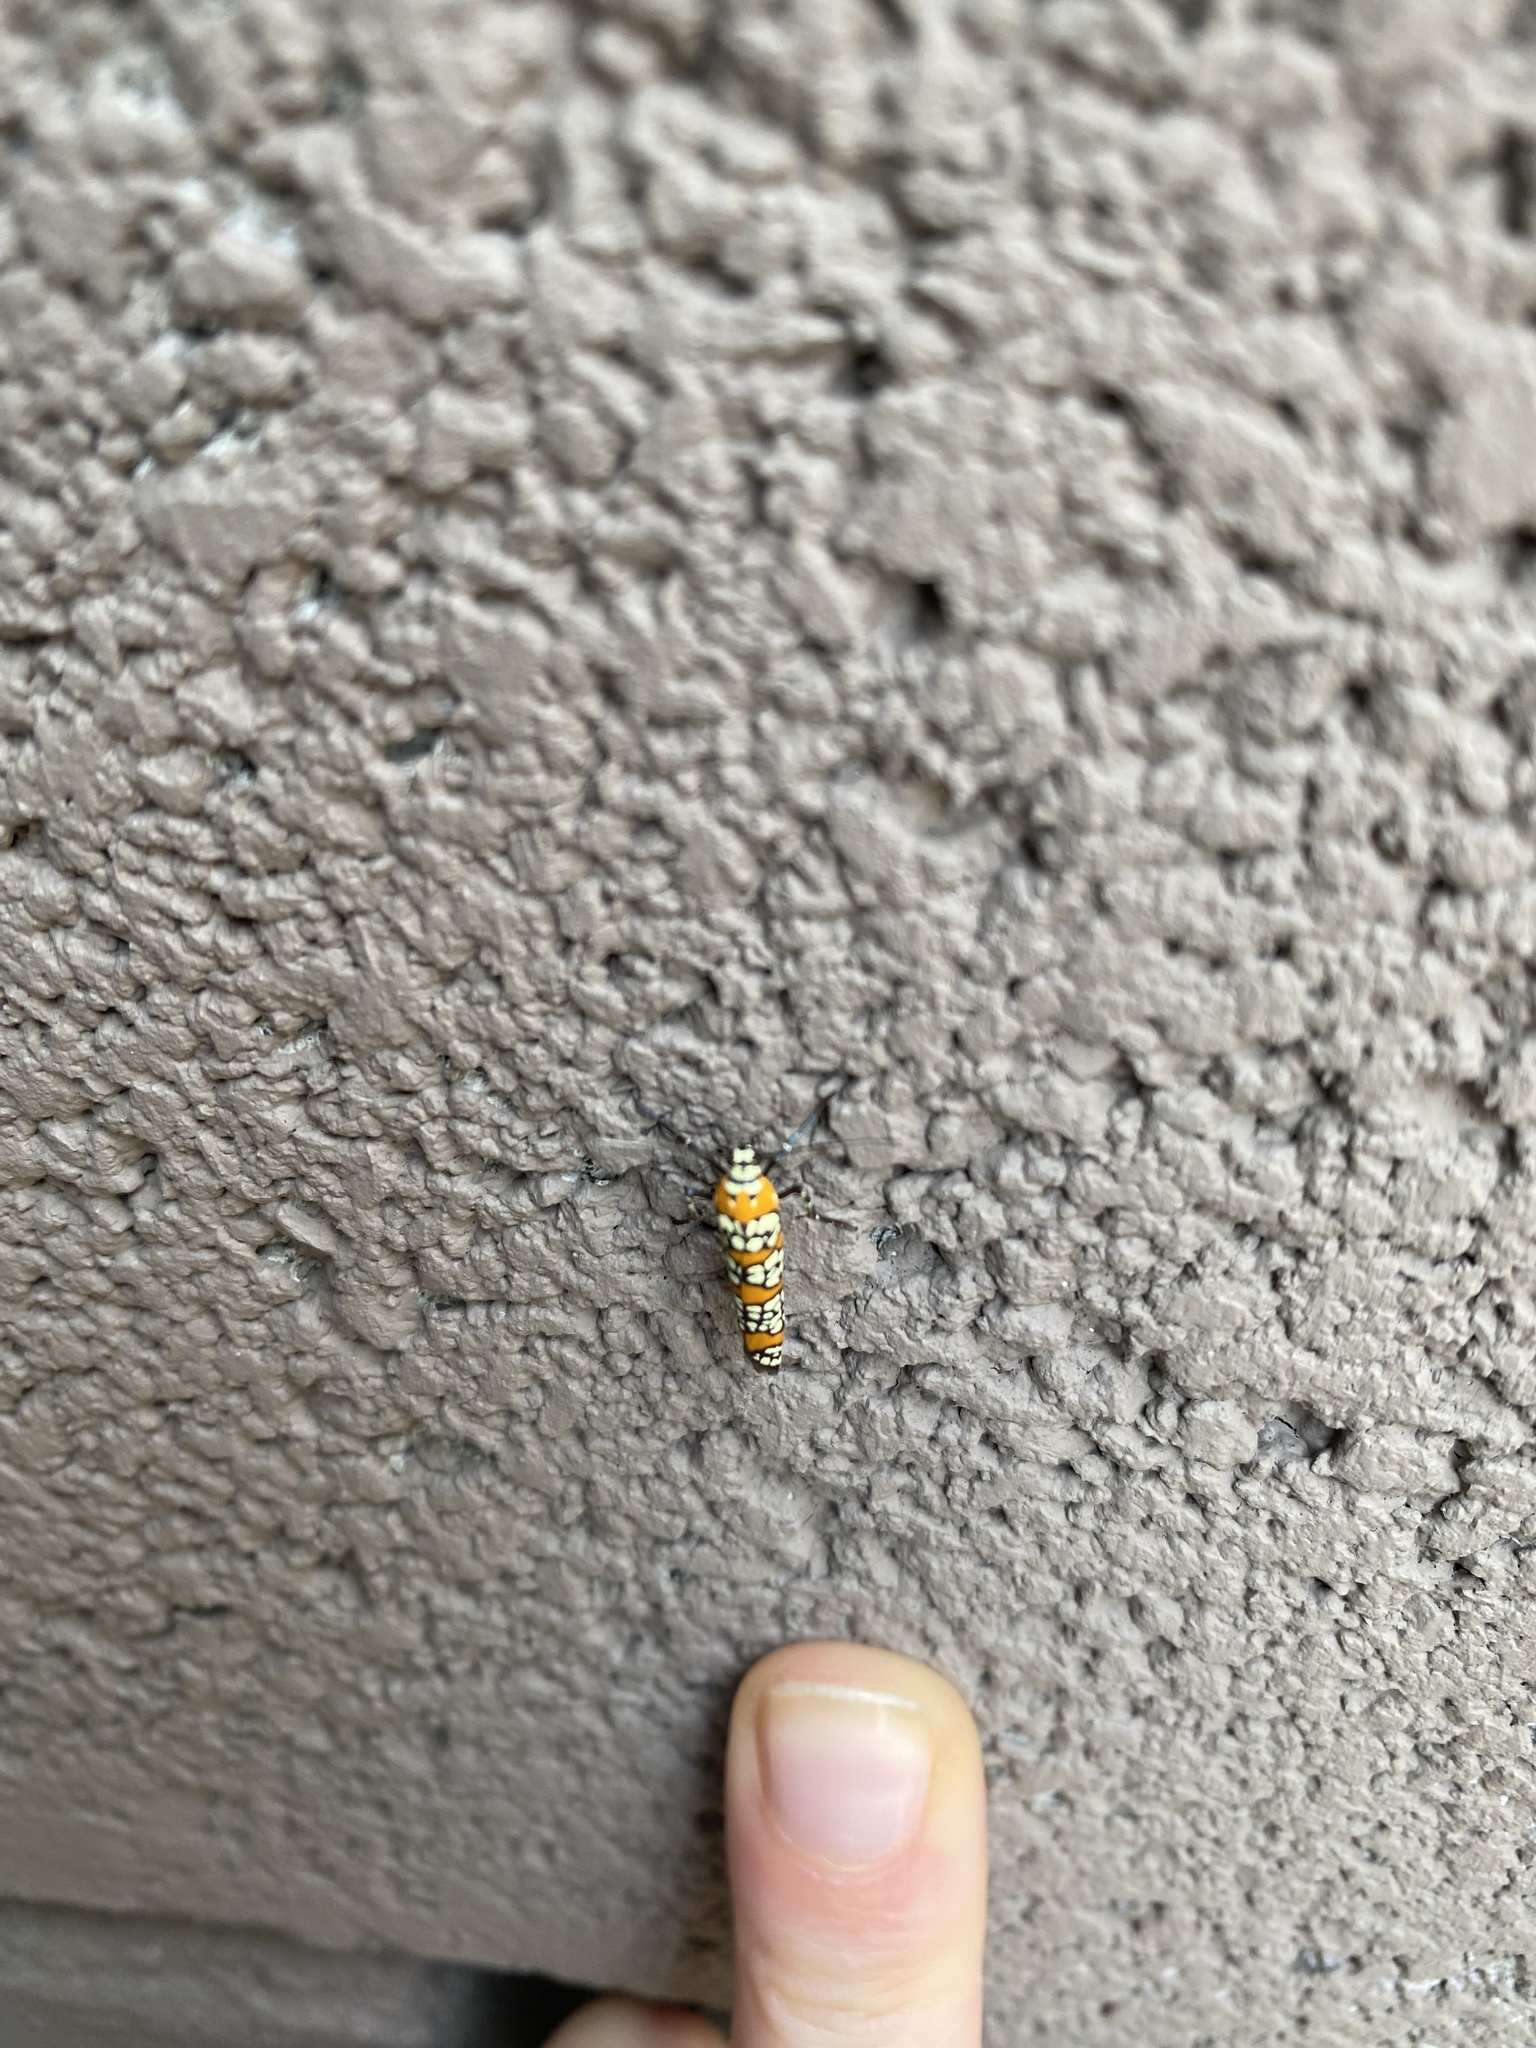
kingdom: Animalia
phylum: Arthropoda
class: Insecta
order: Lepidoptera
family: Attevidae
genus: Atteva
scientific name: Atteva punctella
